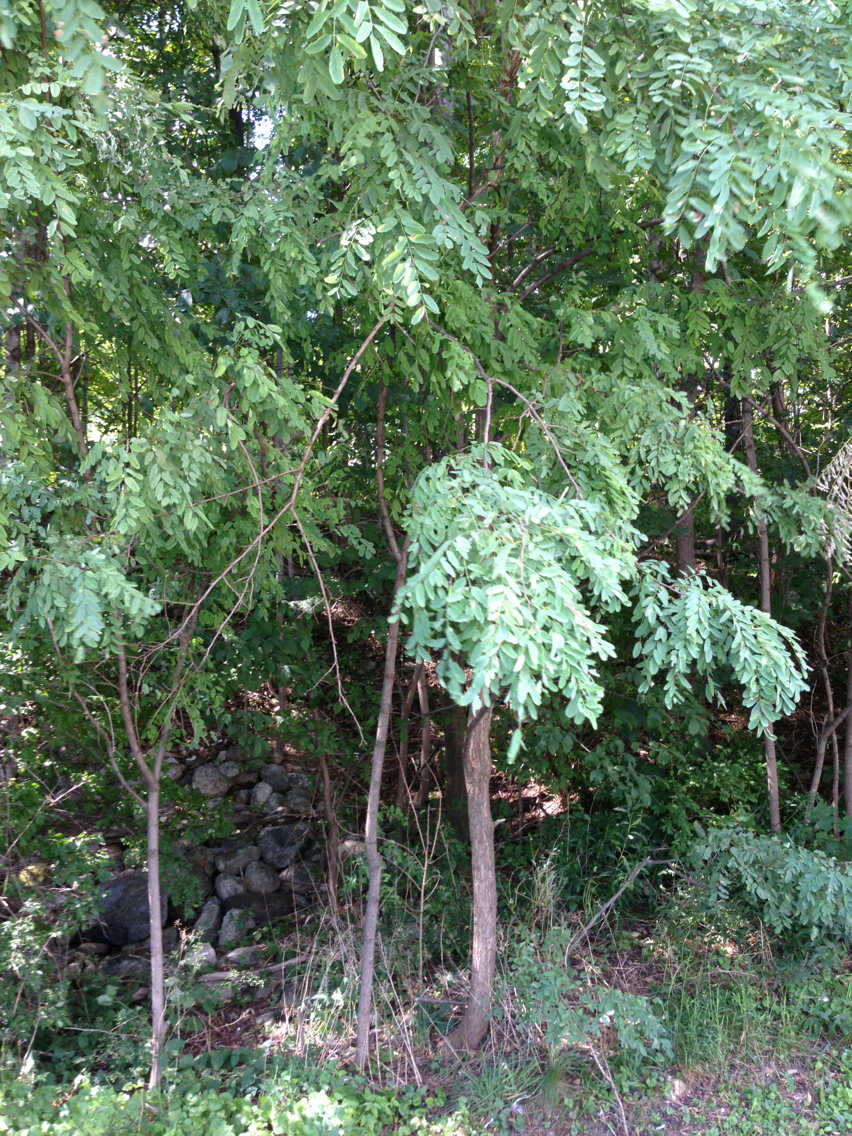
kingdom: Plantae
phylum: Tracheophyta
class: Magnoliopsida
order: Fabales
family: Fabaceae
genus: Robinia
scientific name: Robinia pseudoacacia
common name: Black locust
